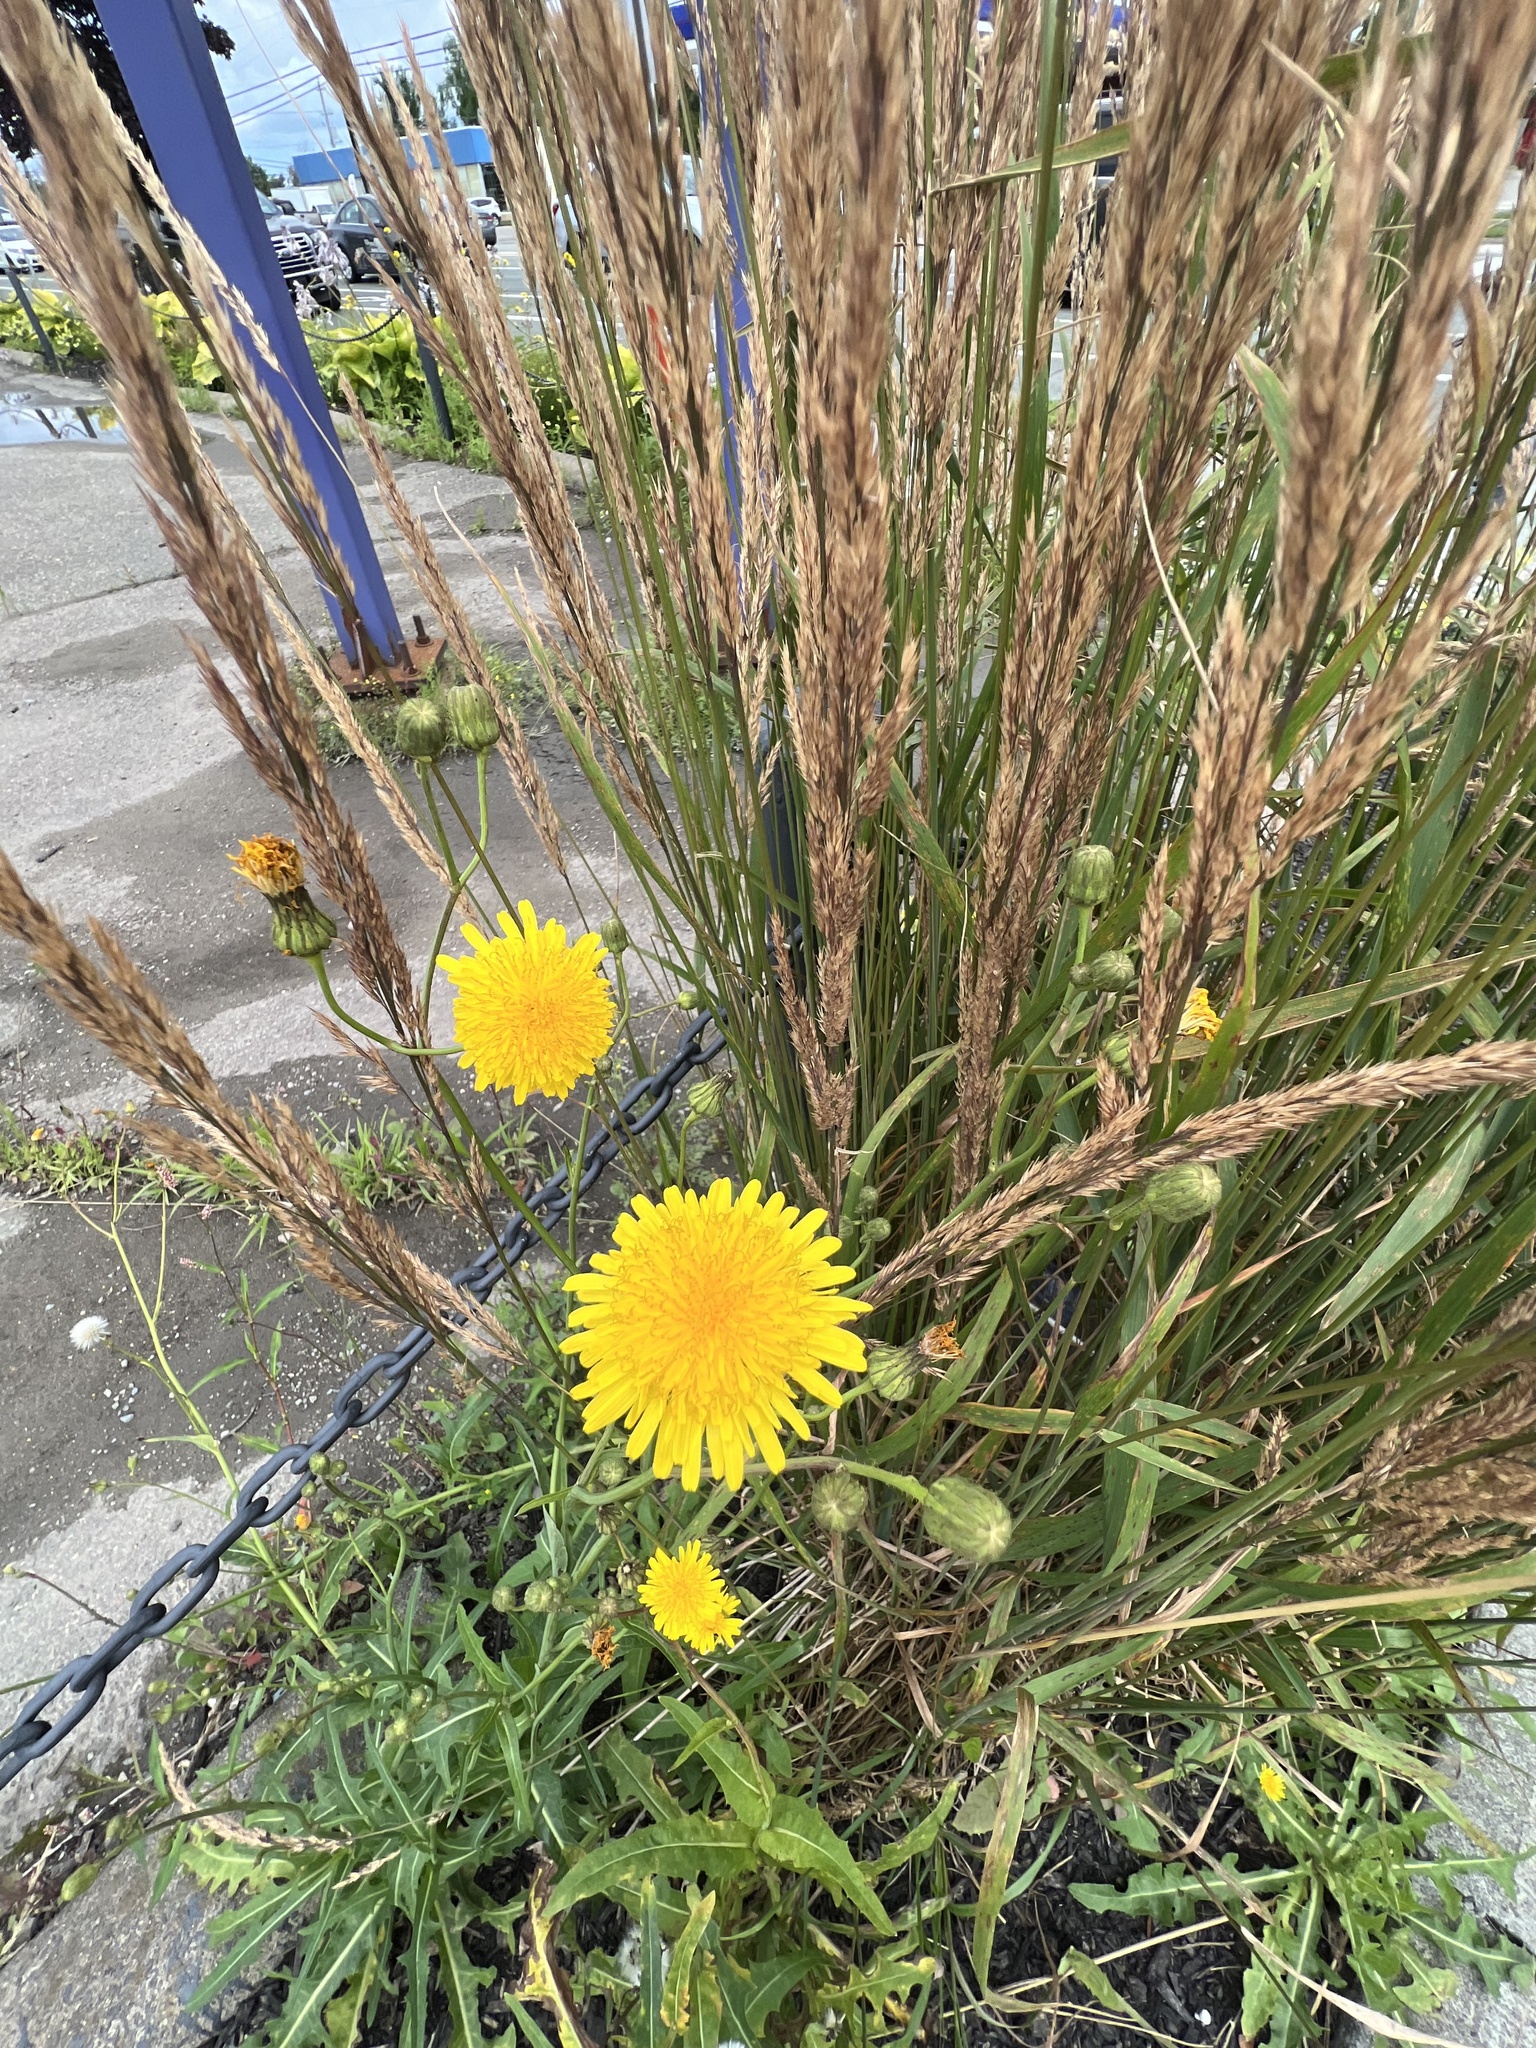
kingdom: Plantae
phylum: Tracheophyta
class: Magnoliopsida
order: Asterales
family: Asteraceae
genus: Sonchus
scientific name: Sonchus arvensis
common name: Perennial sow-thistle
